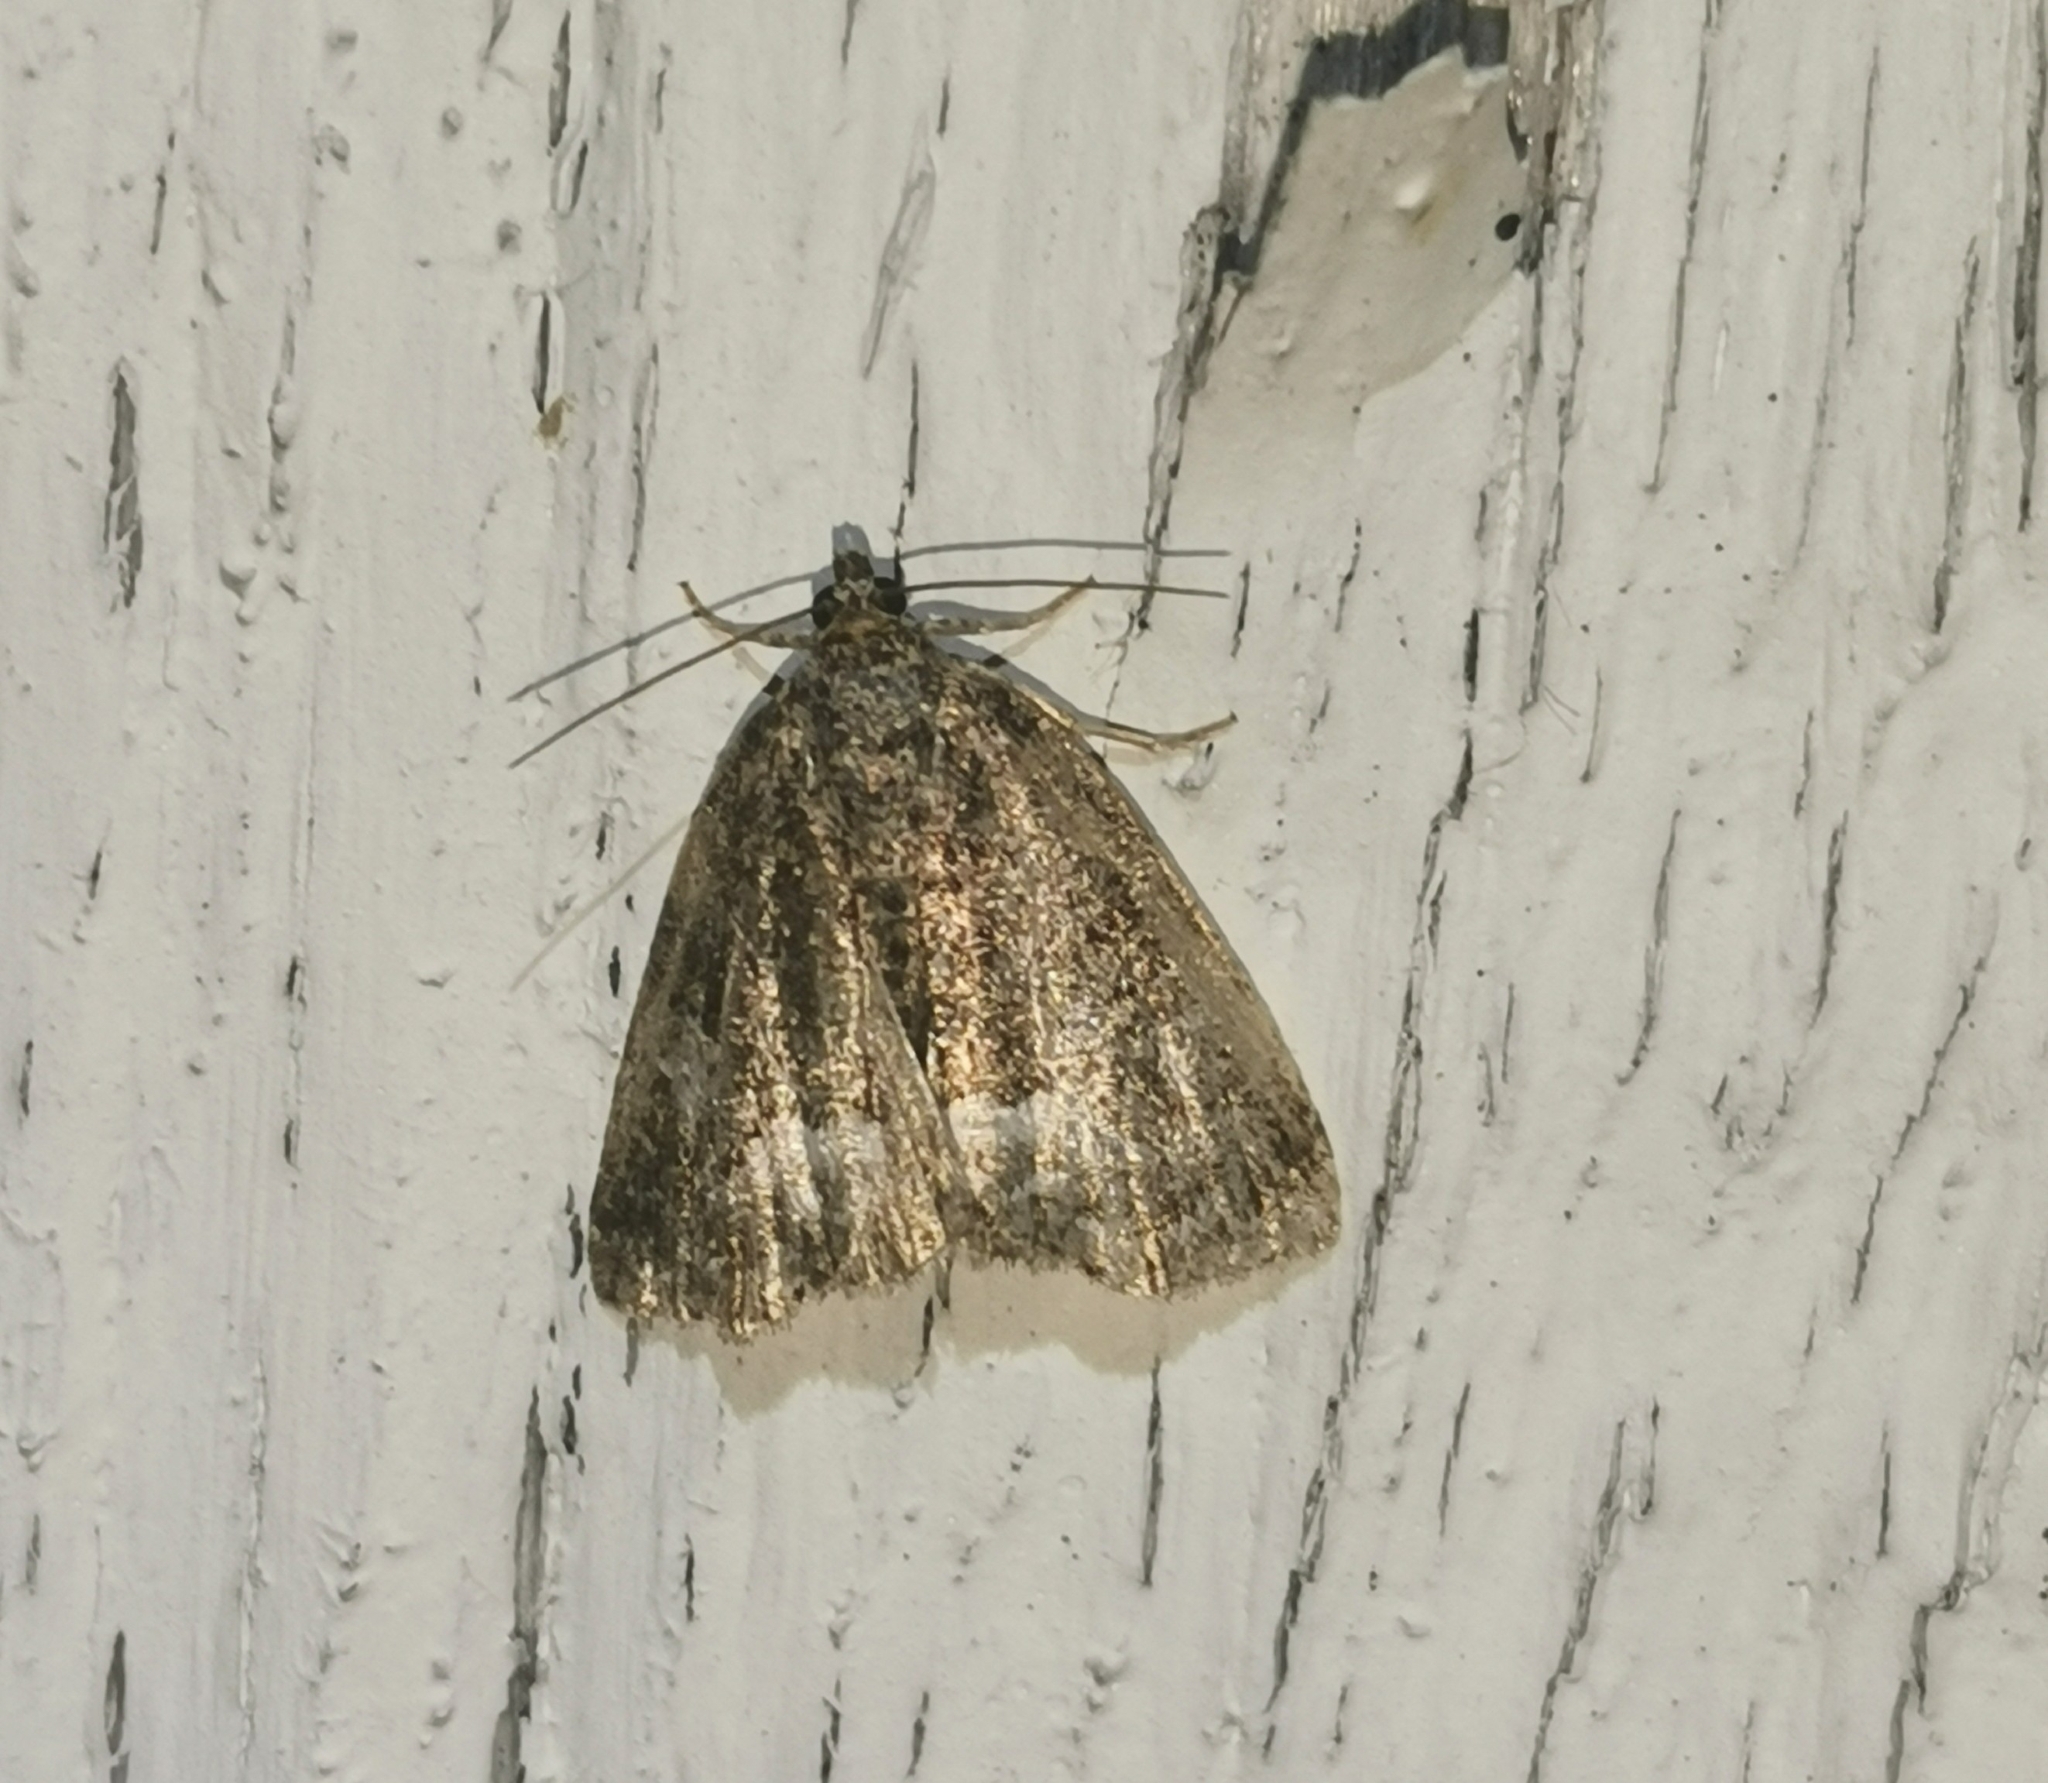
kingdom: Animalia
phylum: Arthropoda
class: Insecta
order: Lepidoptera
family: Noctuidae
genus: Deltote
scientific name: Deltote pygarga
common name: Marbled white spot
